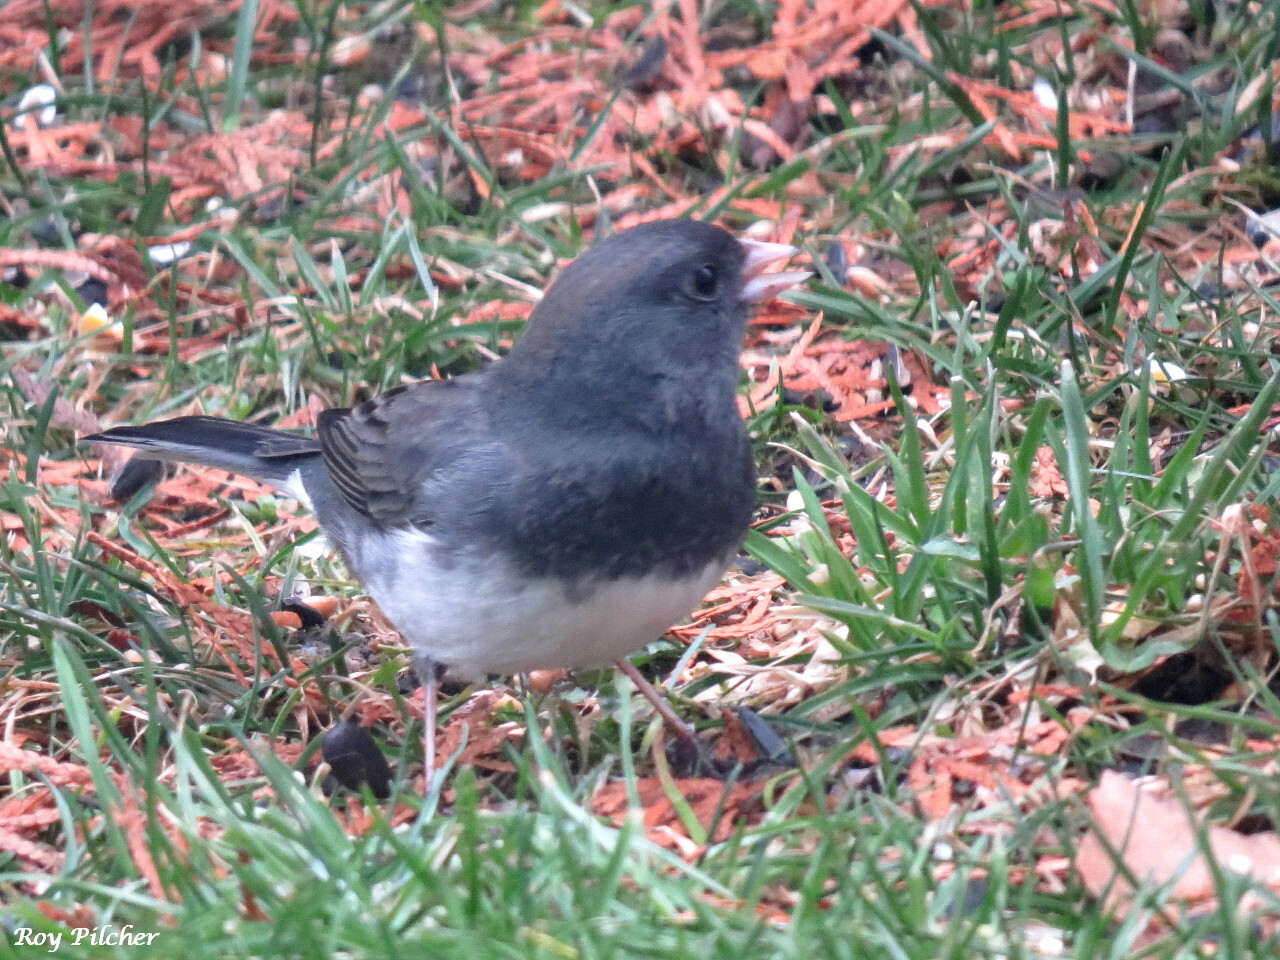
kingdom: Animalia
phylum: Chordata
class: Aves
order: Passeriformes
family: Passerellidae
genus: Junco
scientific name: Junco hyemalis
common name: Dark-eyed junco
